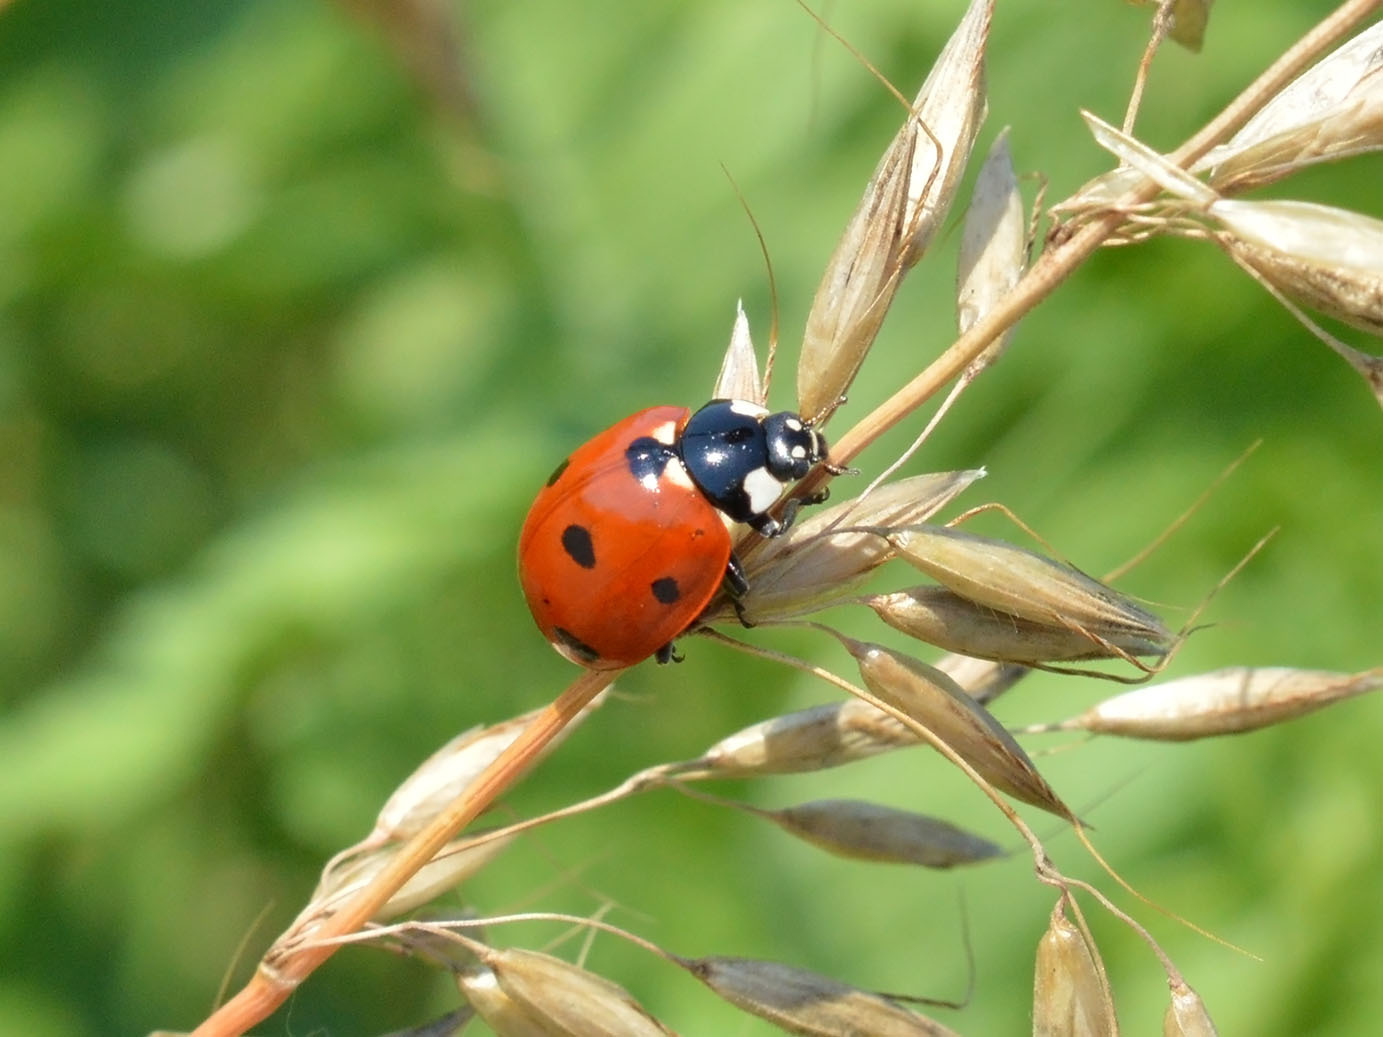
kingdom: Animalia
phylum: Arthropoda
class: Insecta
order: Coleoptera
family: Coccinellidae
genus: Coccinella
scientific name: Coccinella septempunctata
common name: Sevenspotted lady beetle
